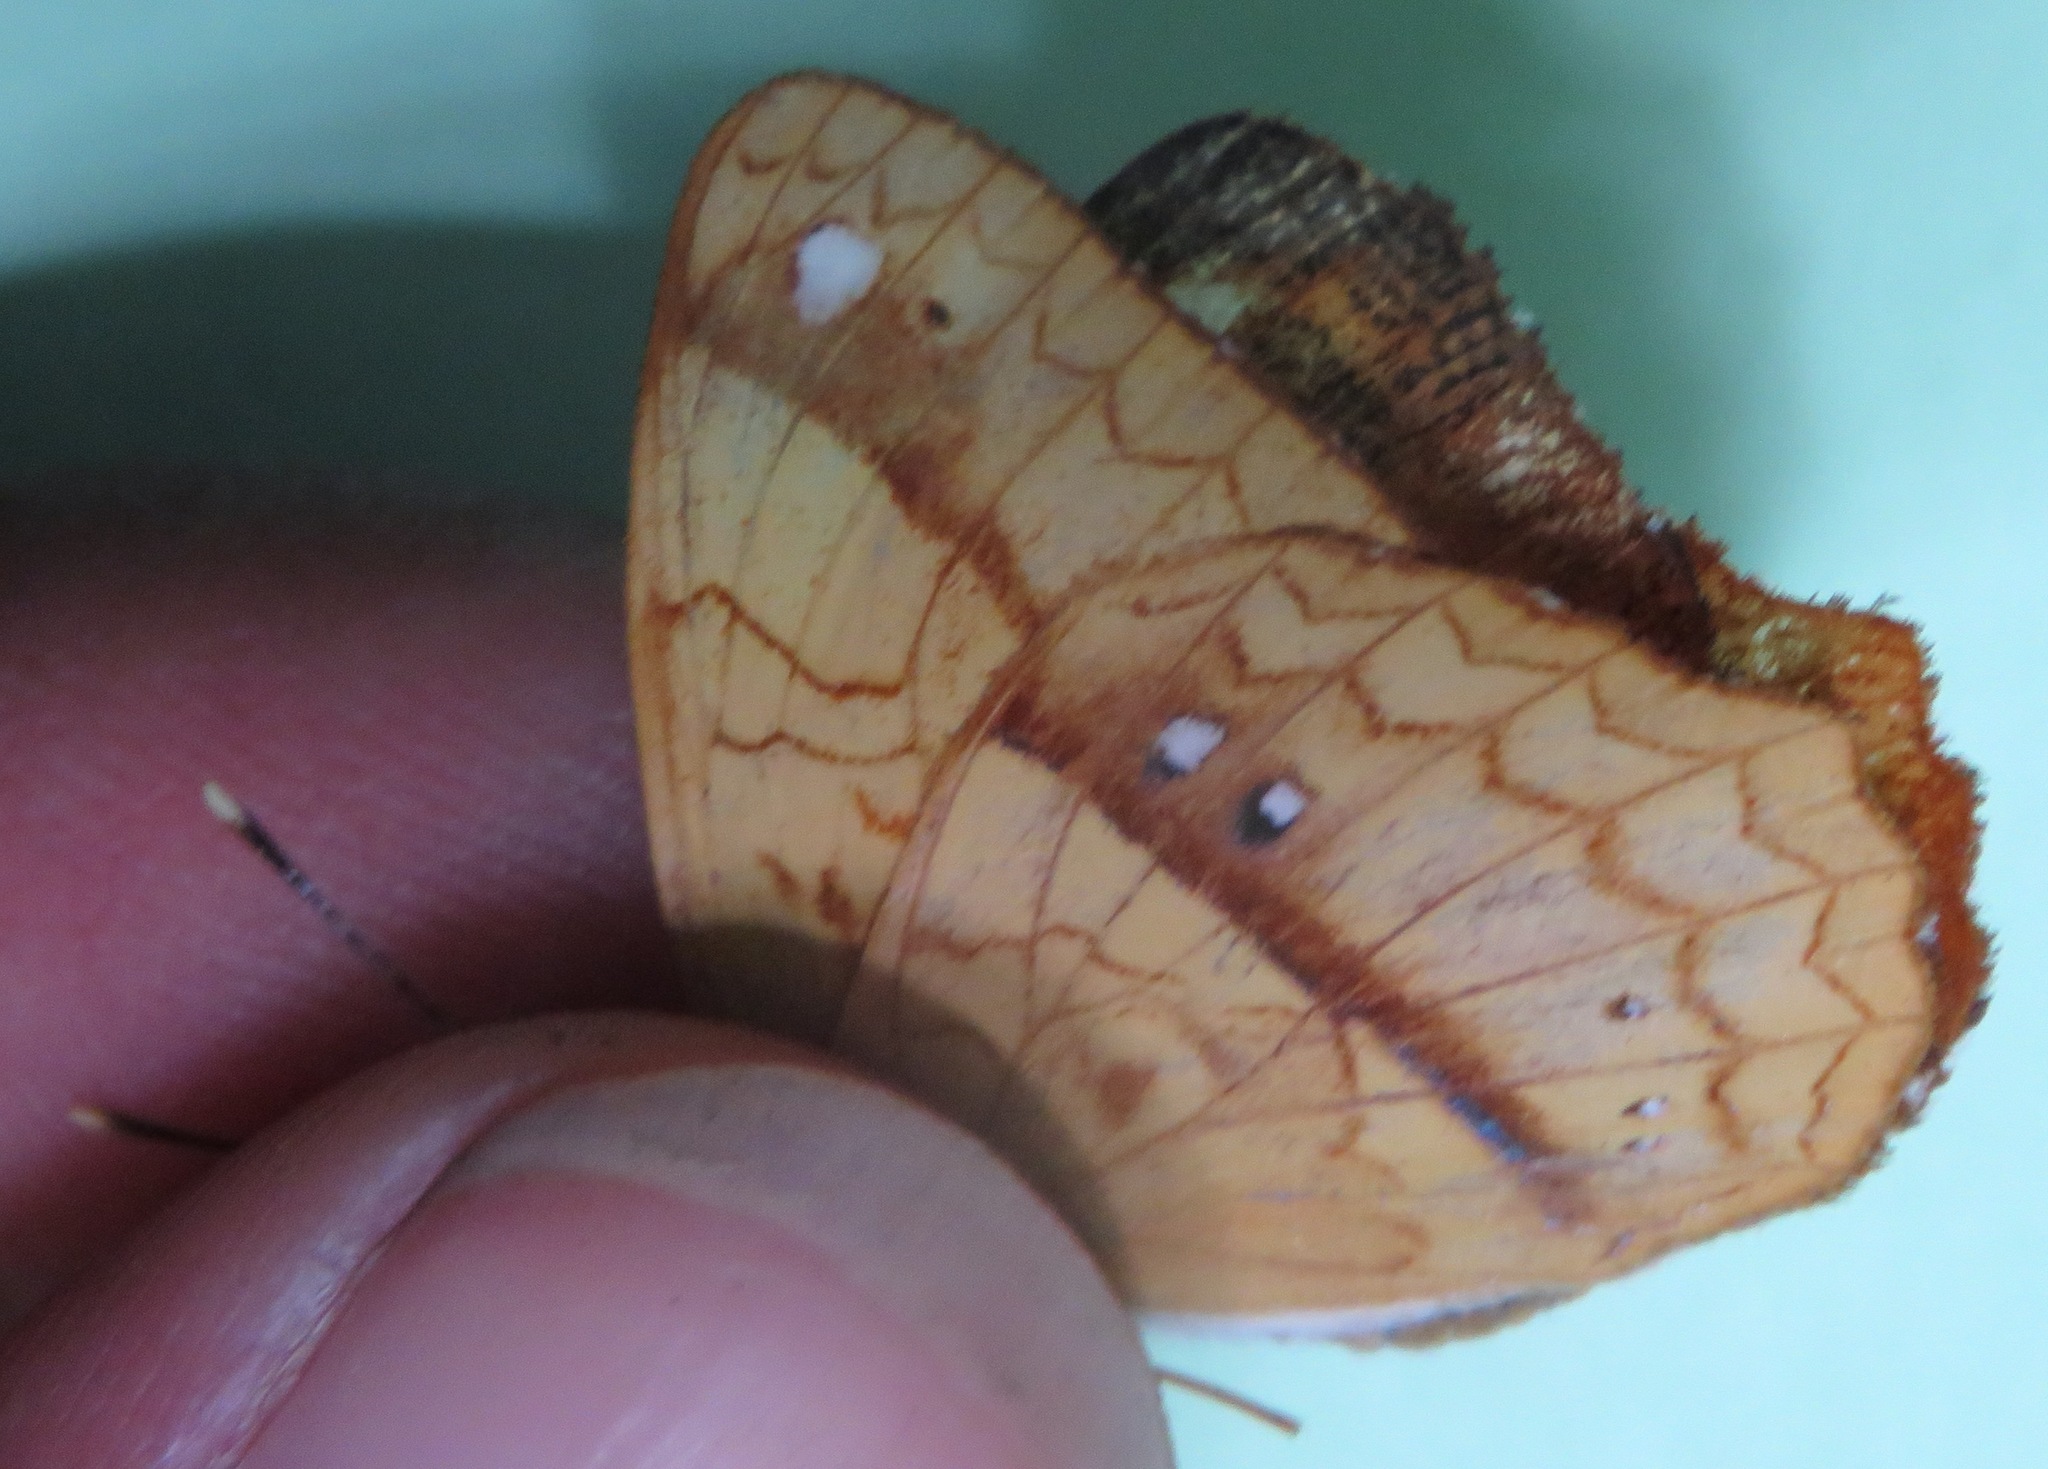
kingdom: Animalia
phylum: Arthropoda
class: Insecta
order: Lepidoptera
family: Nymphalidae
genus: Nica
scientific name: Nica flavilla
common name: Mandarin nica
